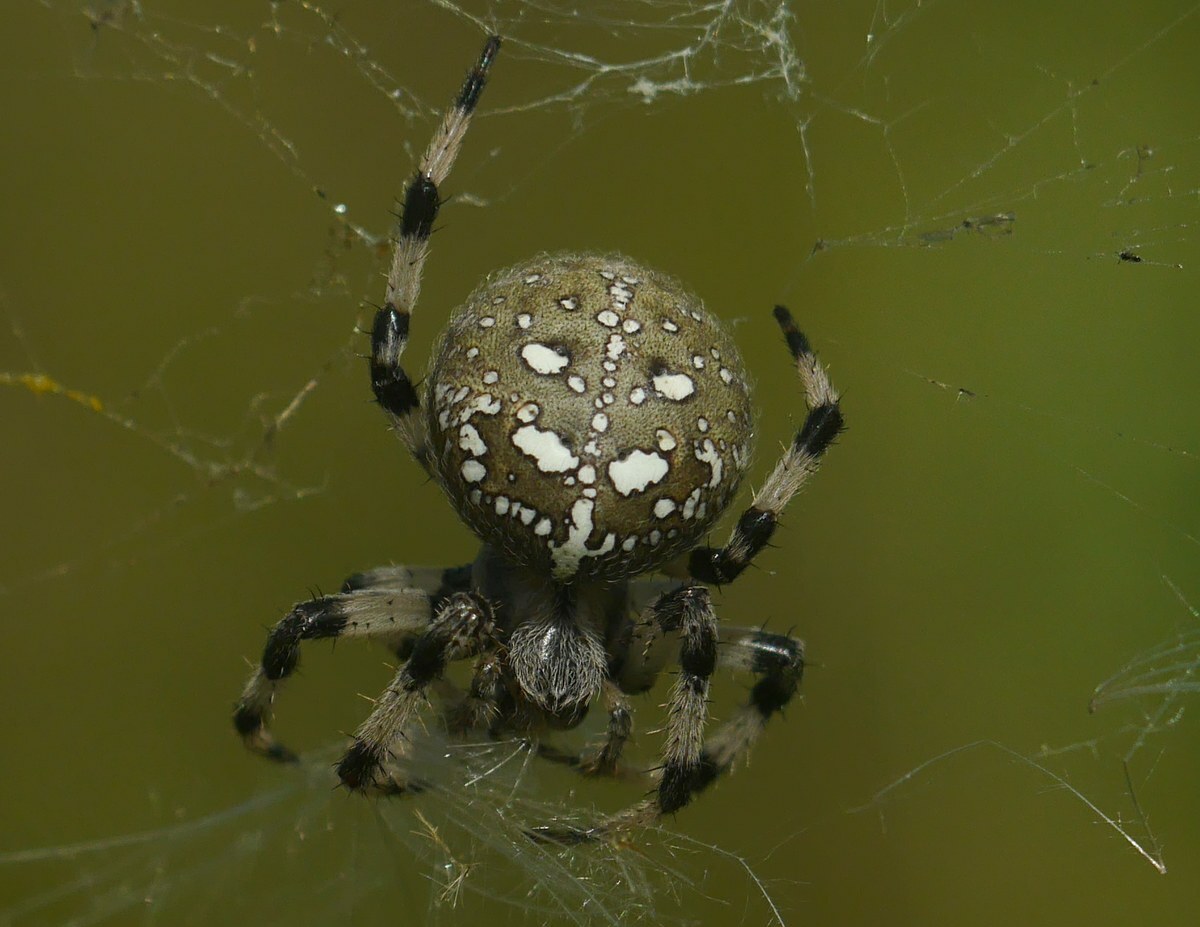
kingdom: Animalia
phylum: Arthropoda
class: Arachnida
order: Araneae
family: Araneidae
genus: Araneus
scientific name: Araneus quadratus
